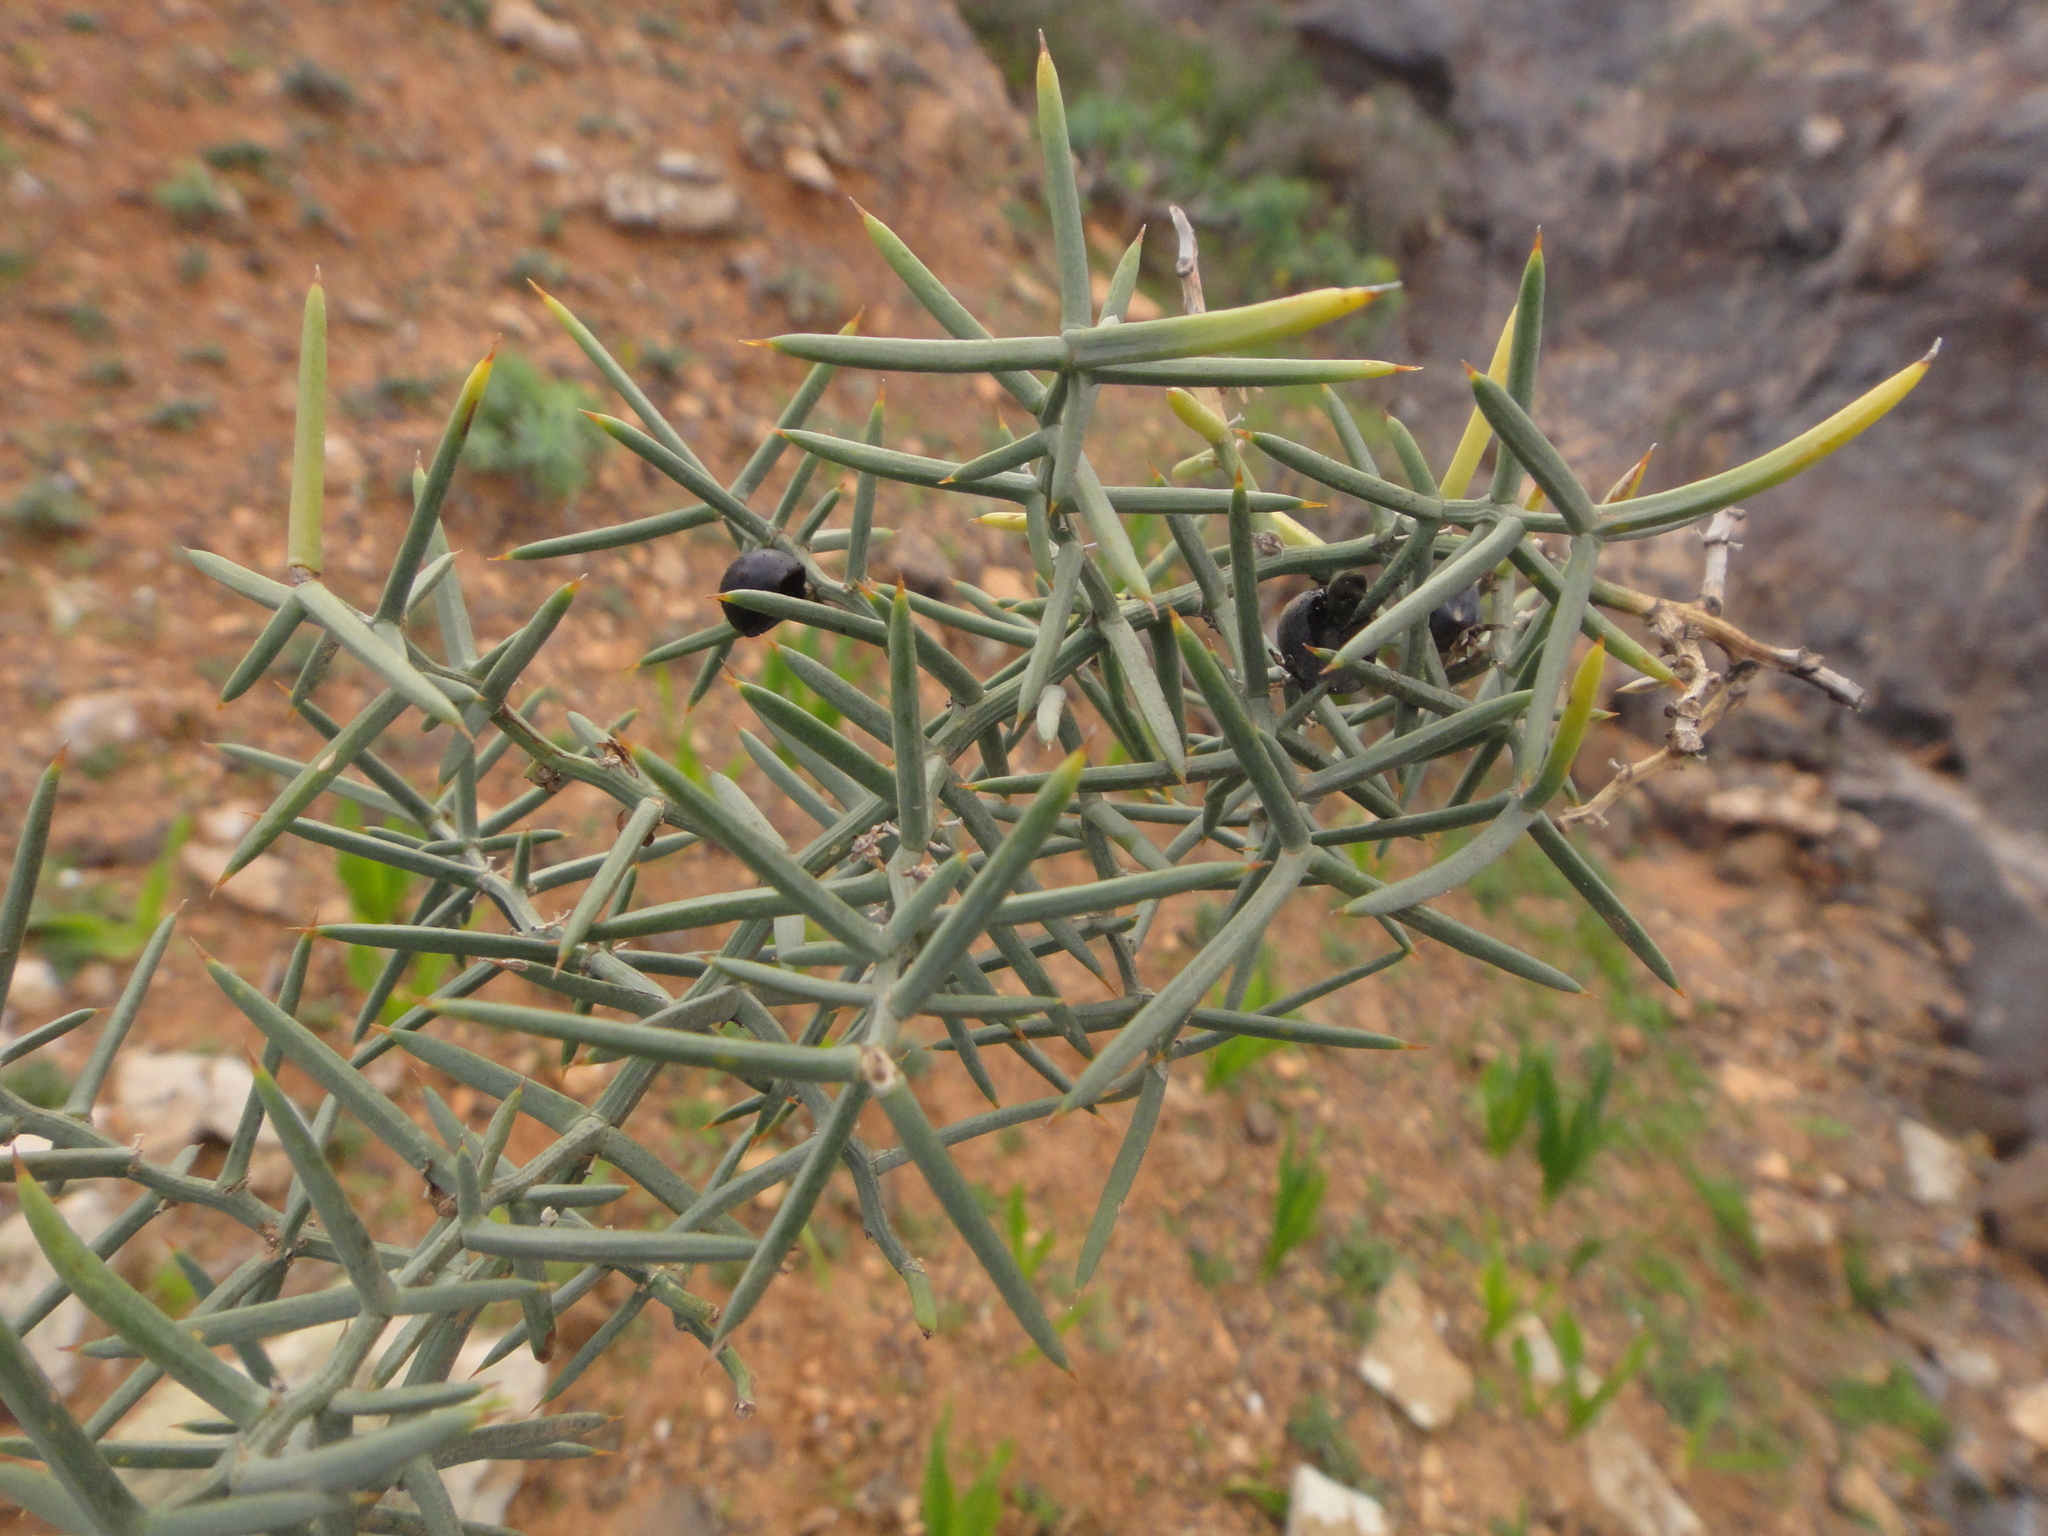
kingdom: Plantae
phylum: Tracheophyta
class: Liliopsida
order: Asparagales
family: Asparagaceae
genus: Asparagus
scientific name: Asparagus horridus
